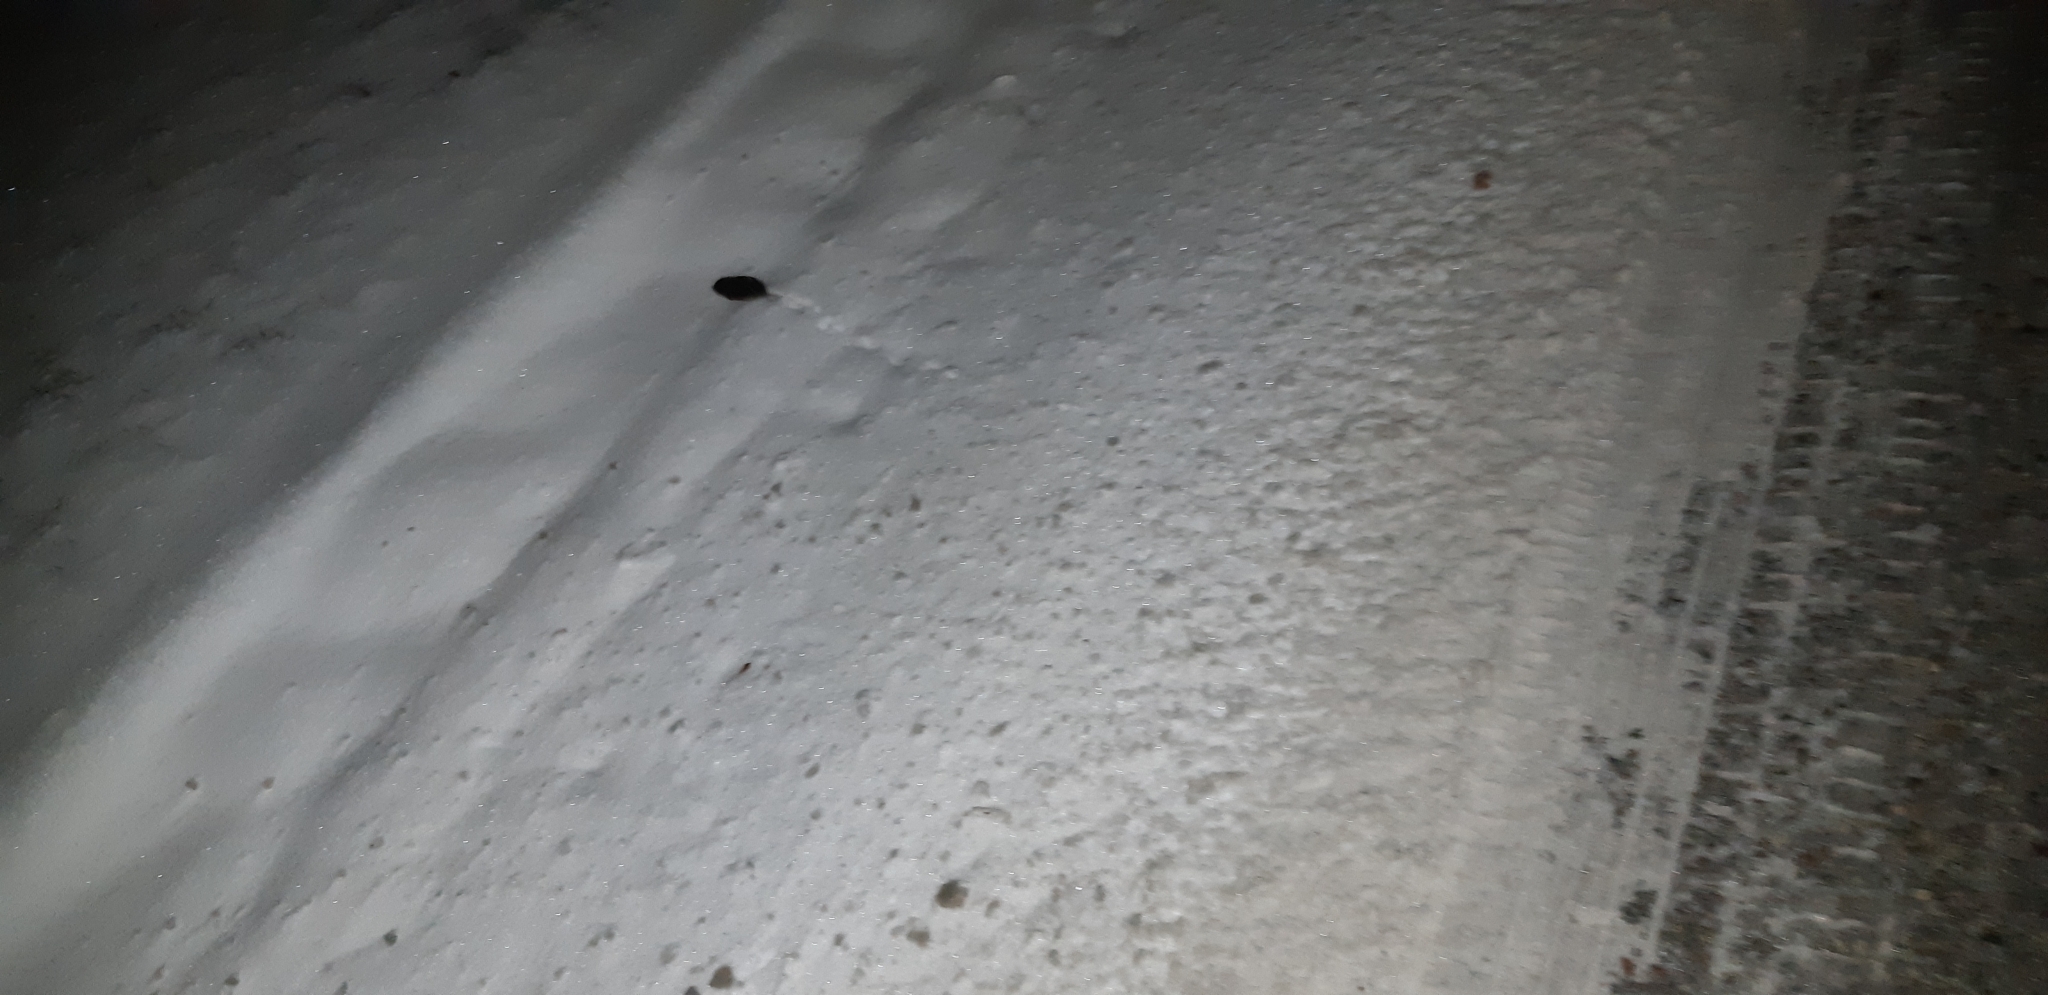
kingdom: Animalia
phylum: Chordata
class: Mammalia
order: Rodentia
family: Cricetidae
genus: Microtus
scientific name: Microtus pennsylvanicus
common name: Meadow vole
